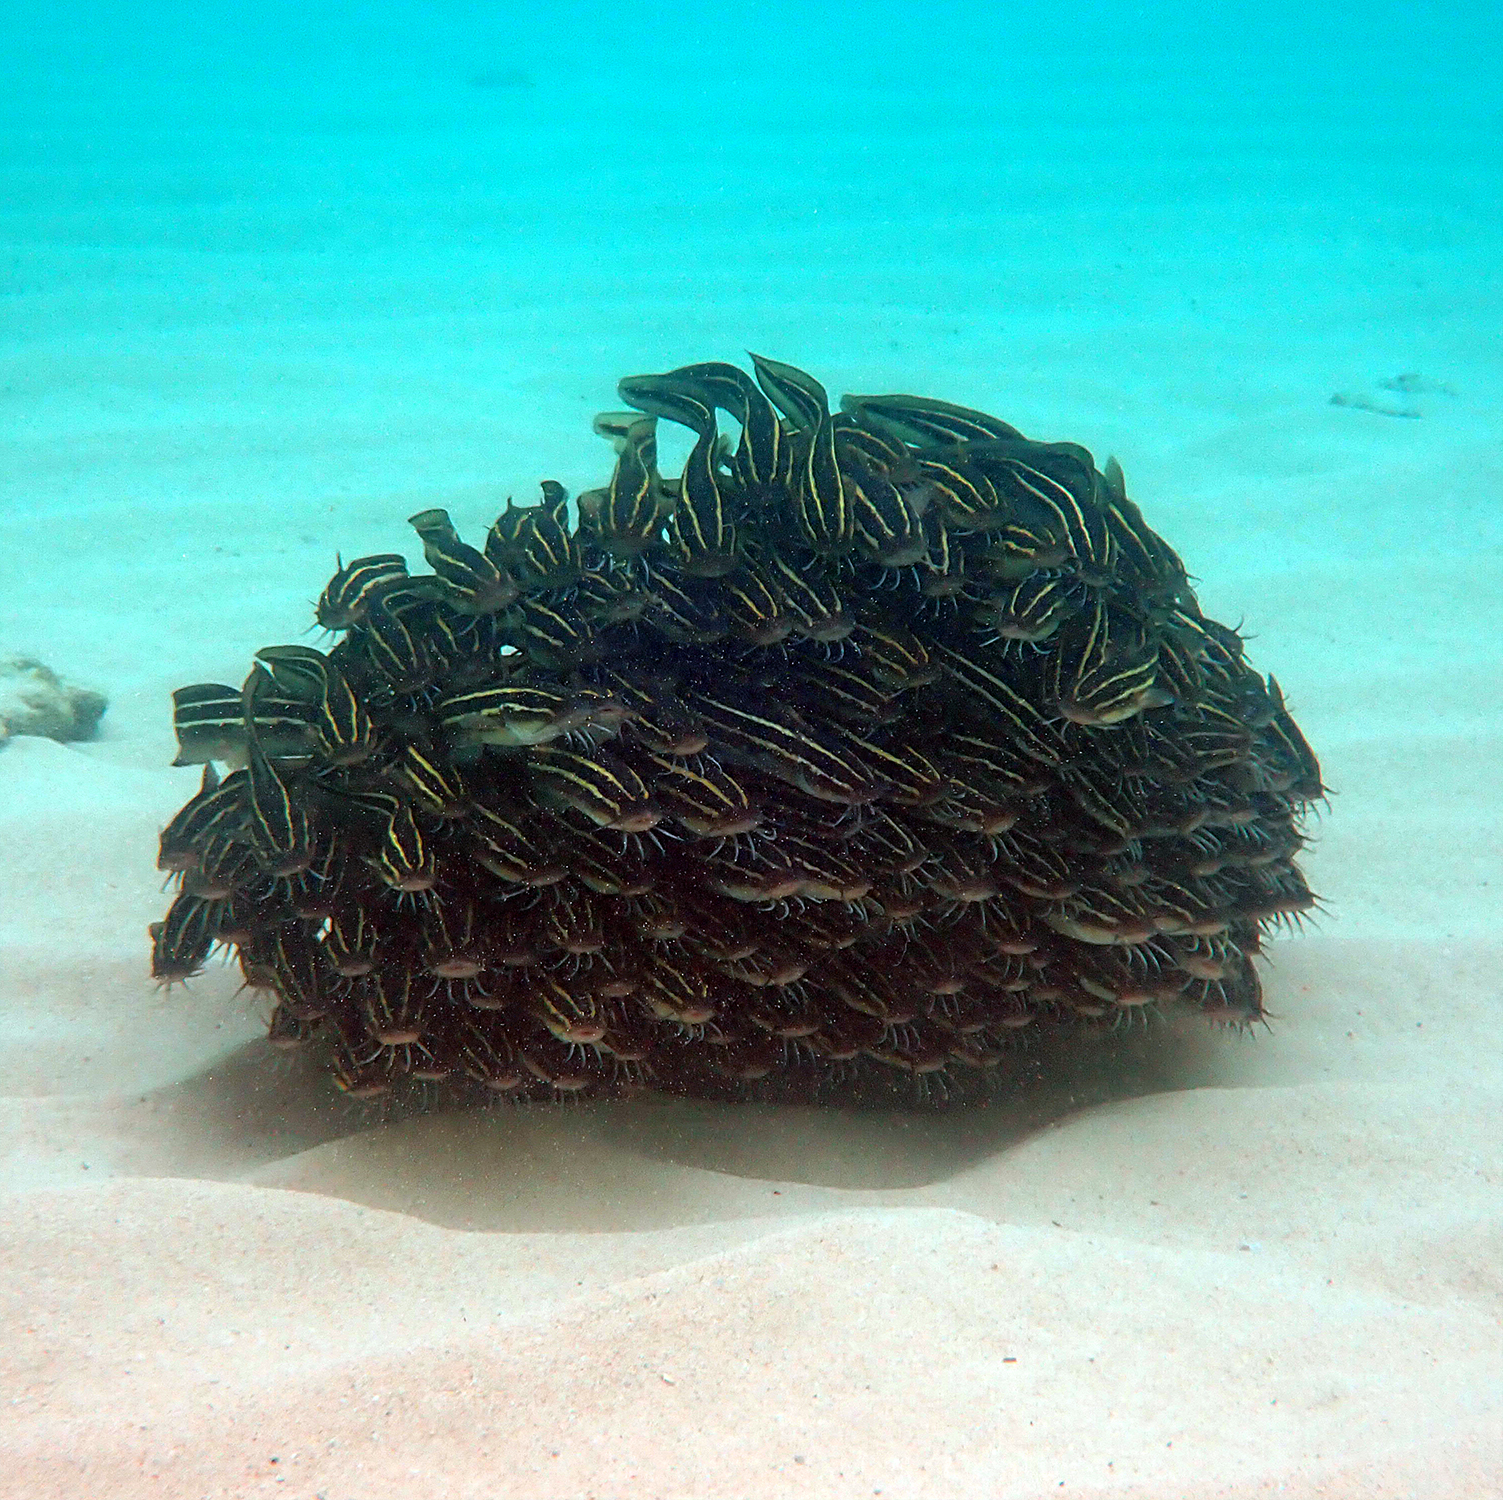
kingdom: Animalia
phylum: Chordata
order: Siluriformes
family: Plotosidae
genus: Plotosus
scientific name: Plotosus lineatus
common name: Striped eel catfish
